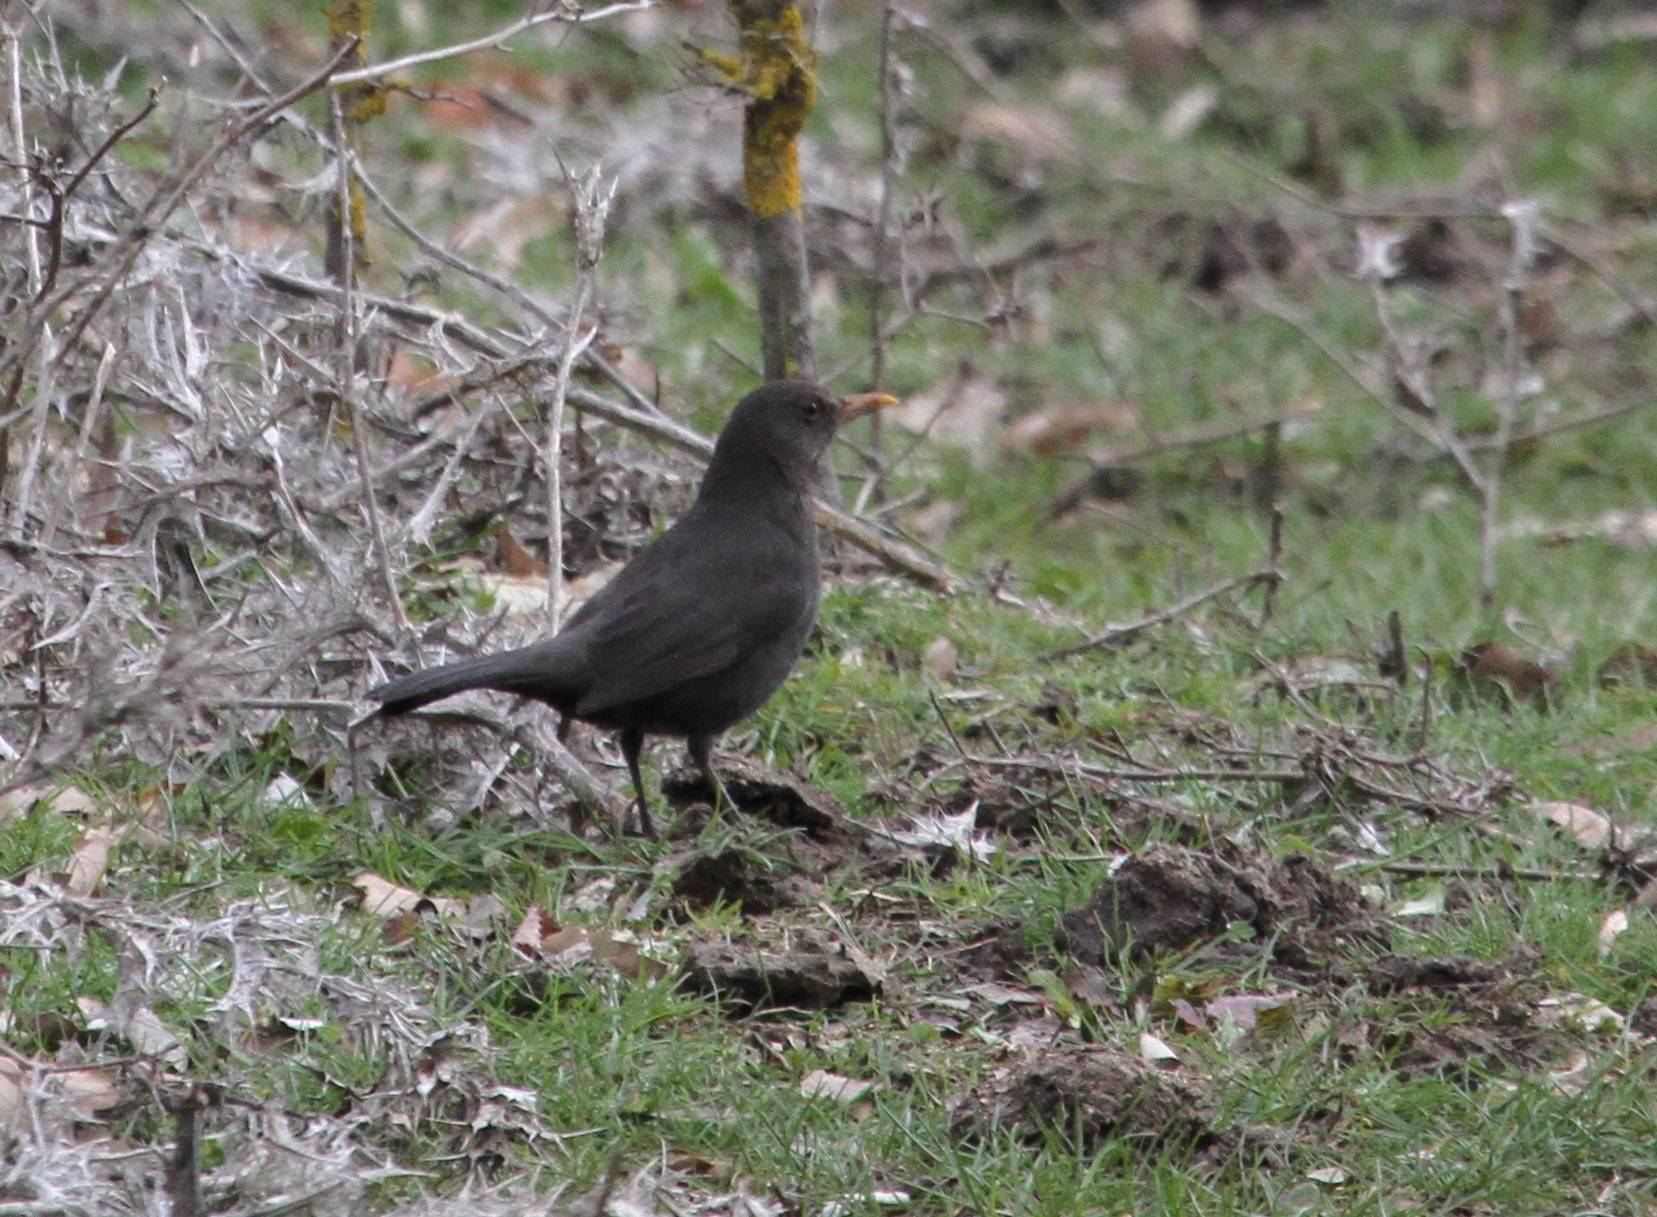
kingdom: Animalia
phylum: Chordata
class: Aves
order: Passeriformes
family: Turdidae
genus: Turdus
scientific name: Turdus merula
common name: Common blackbird
